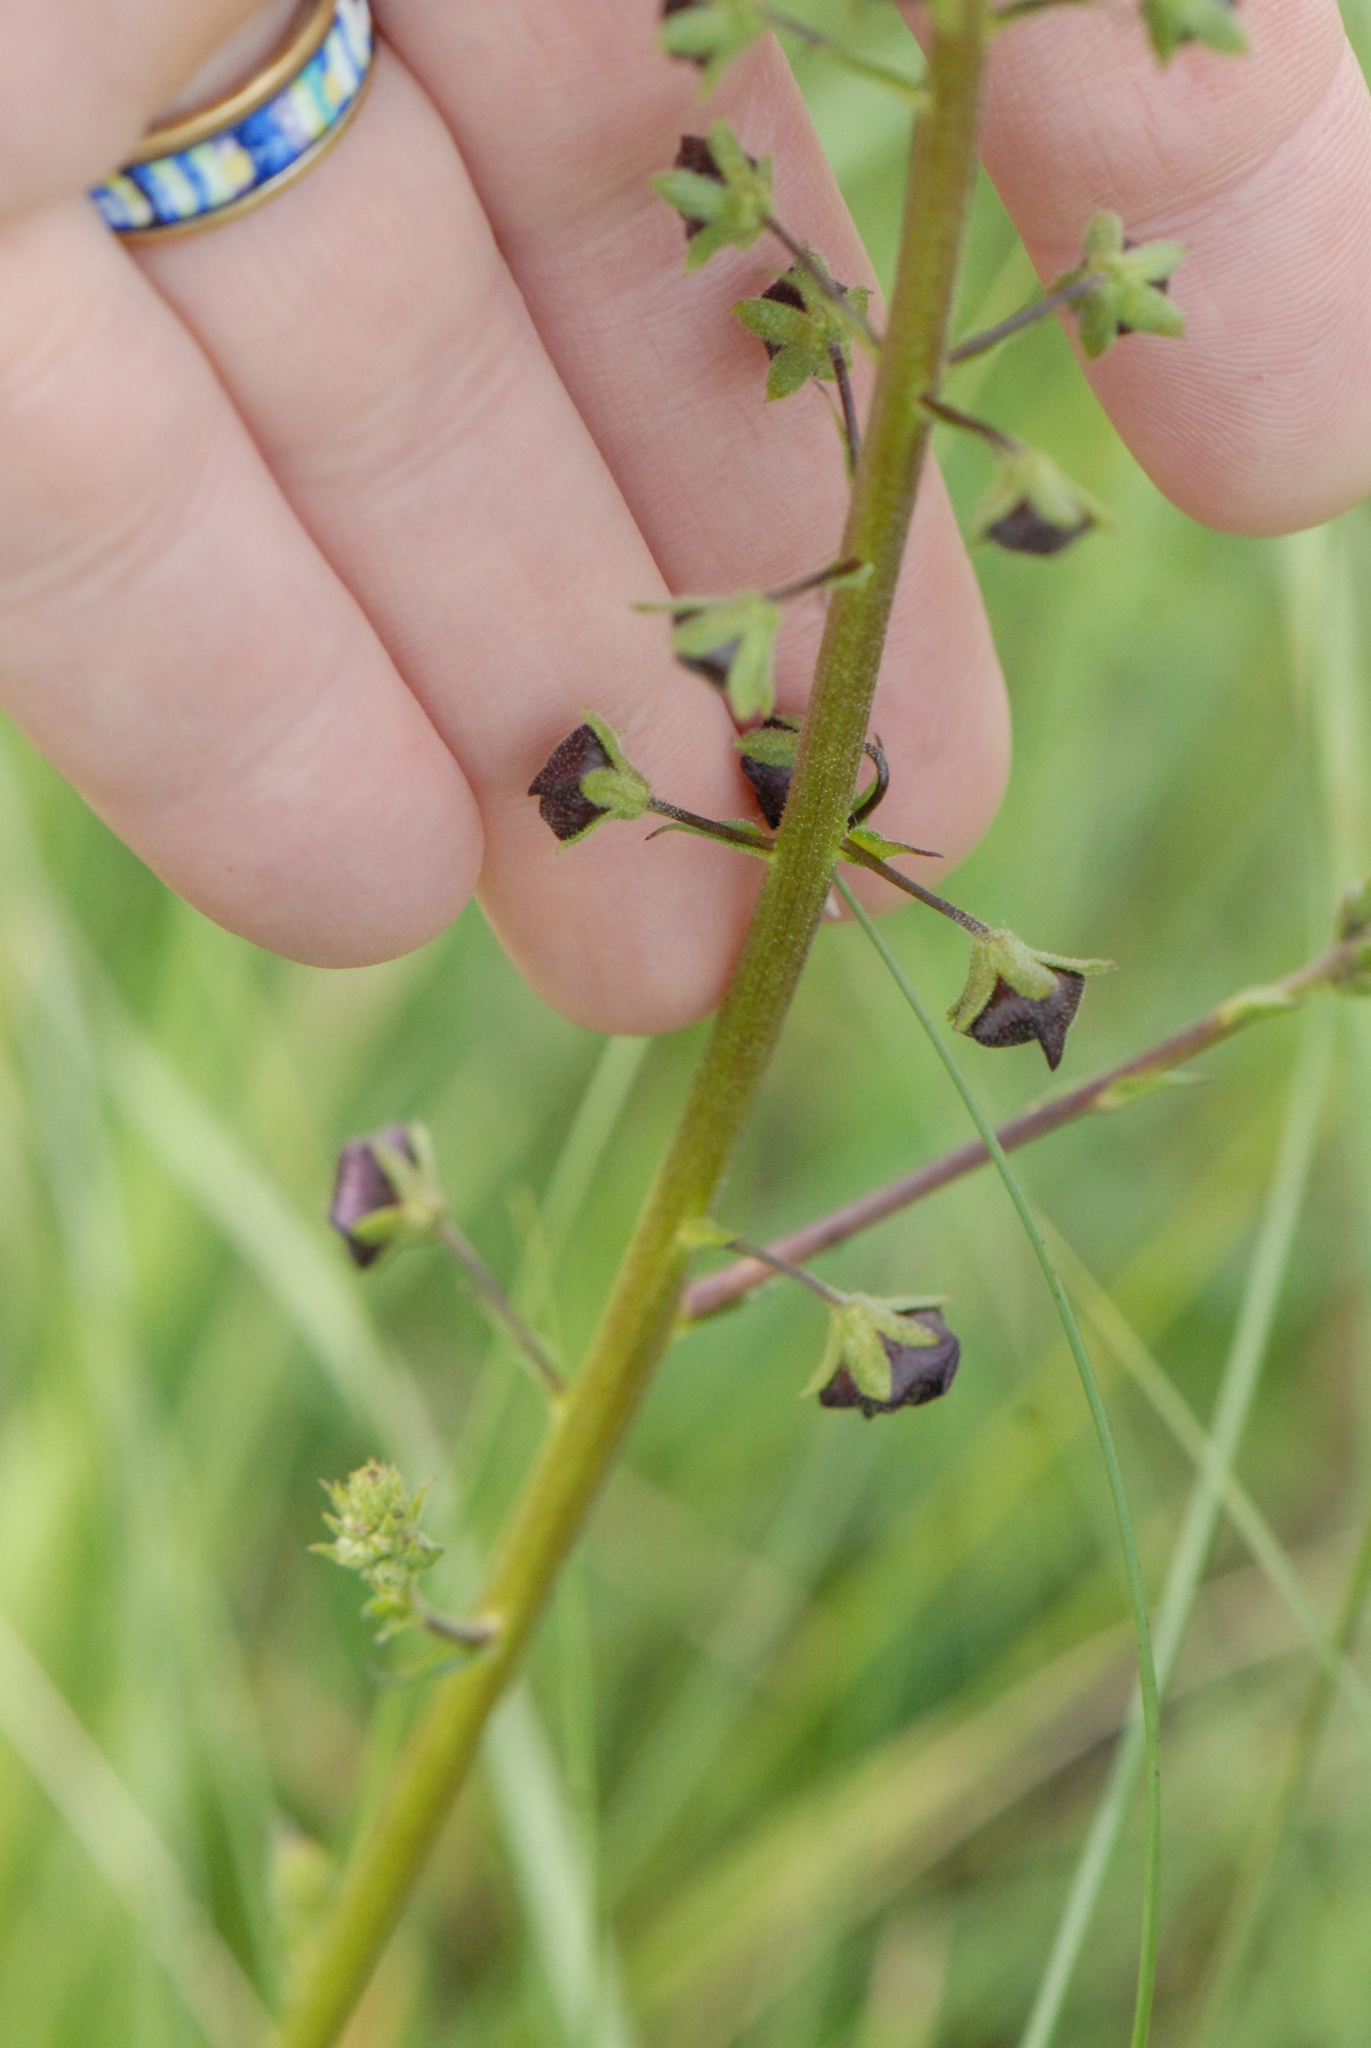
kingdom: Plantae
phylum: Tracheophyta
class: Magnoliopsida
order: Lamiales
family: Scrophulariaceae
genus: Verbascum
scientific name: Verbascum phoeniceum
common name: Purple mullein
